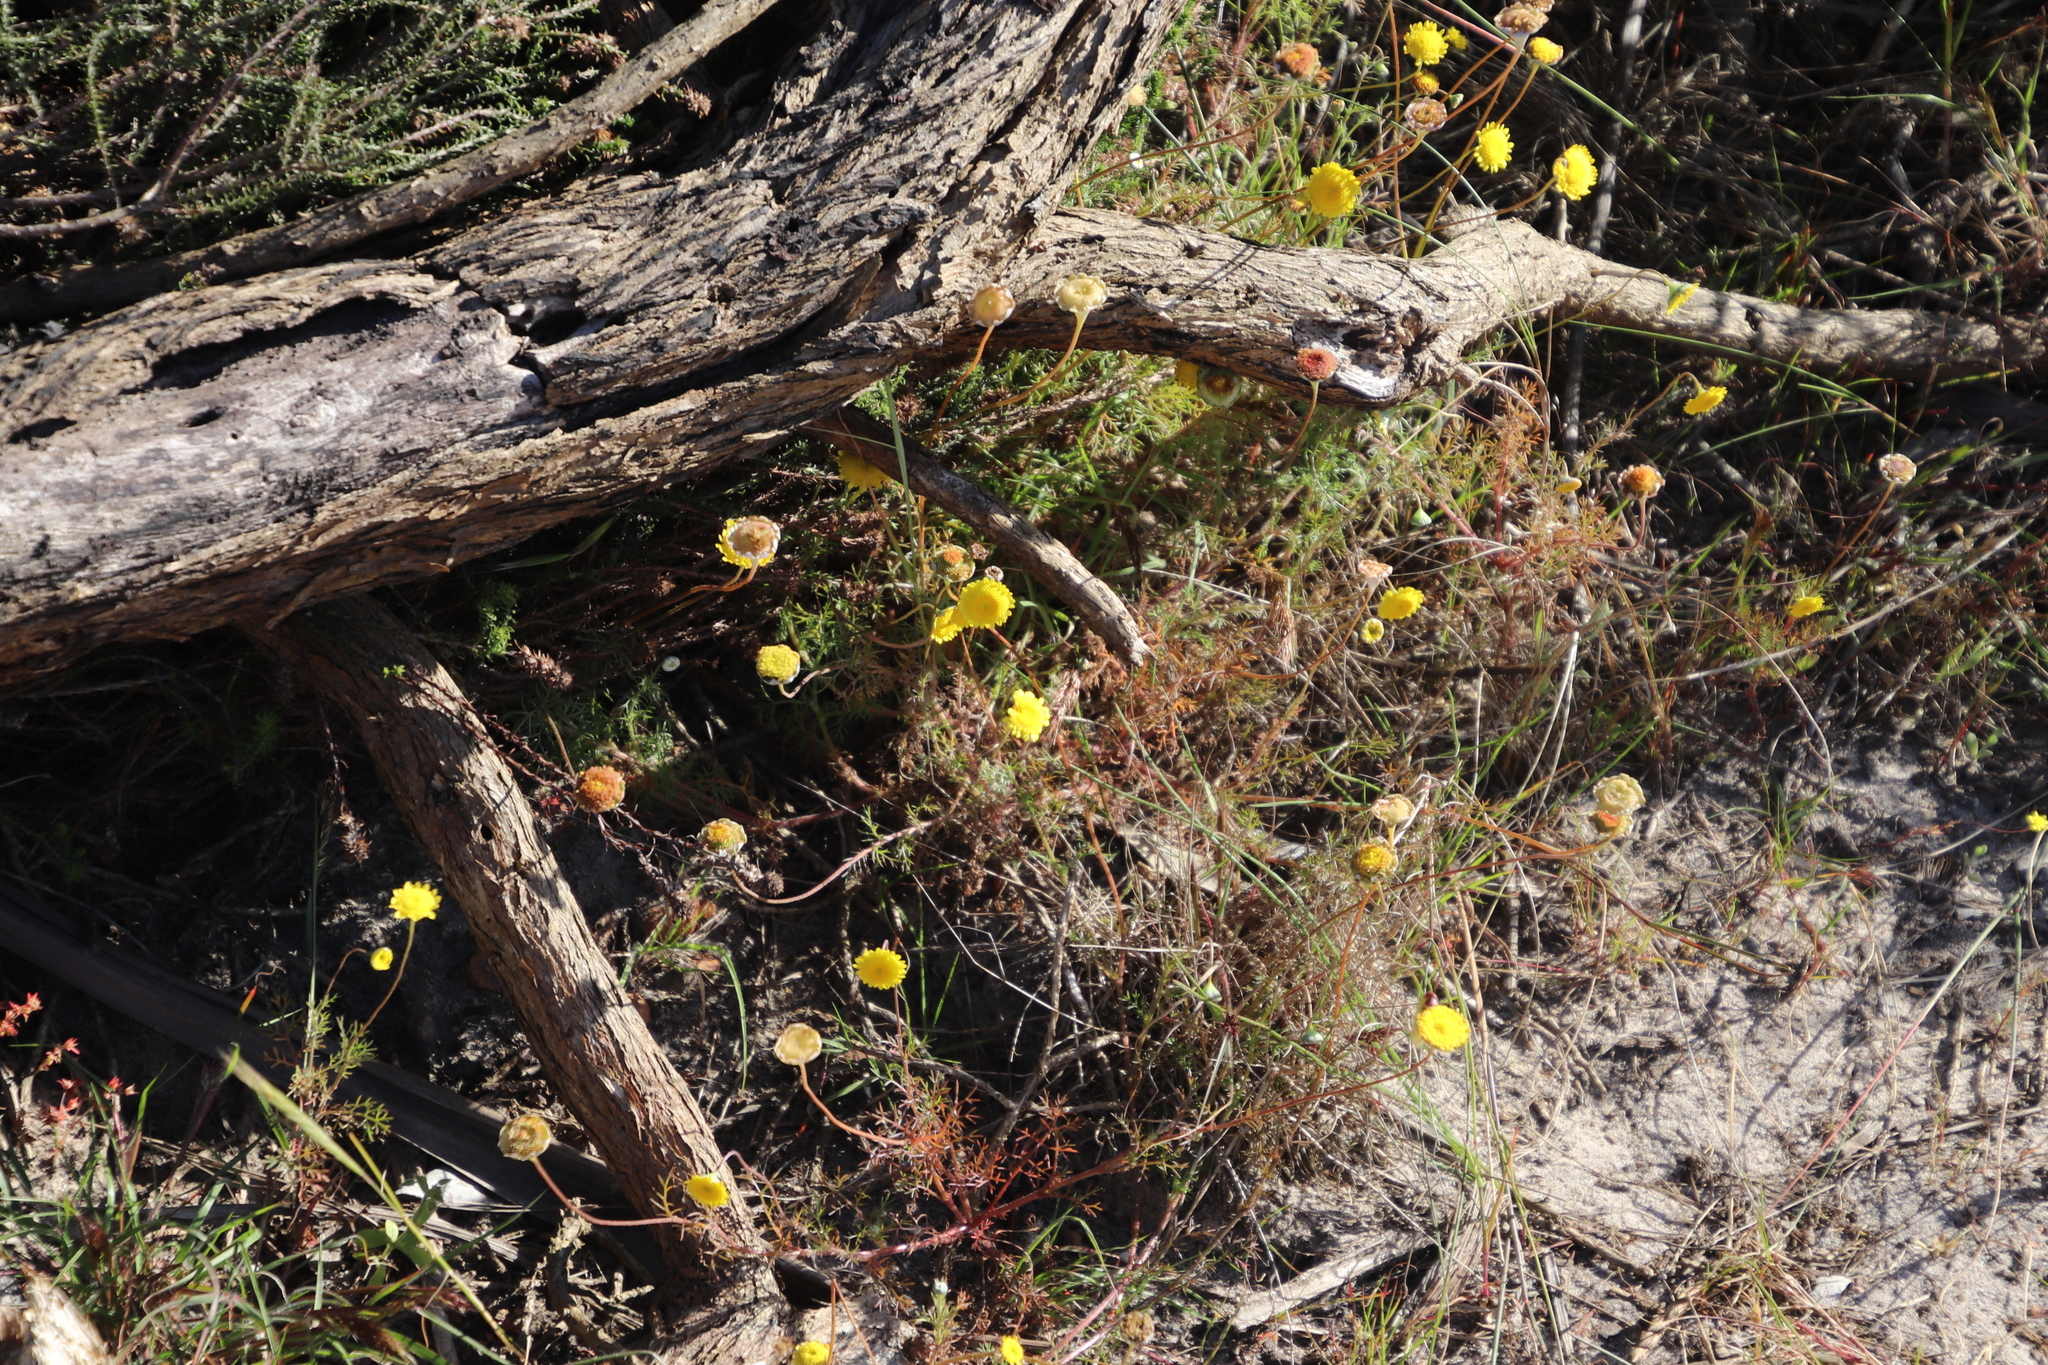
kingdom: Plantae
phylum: Tracheophyta
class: Magnoliopsida
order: Asterales
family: Asteraceae
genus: Cotula
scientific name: Cotula pruinosa
